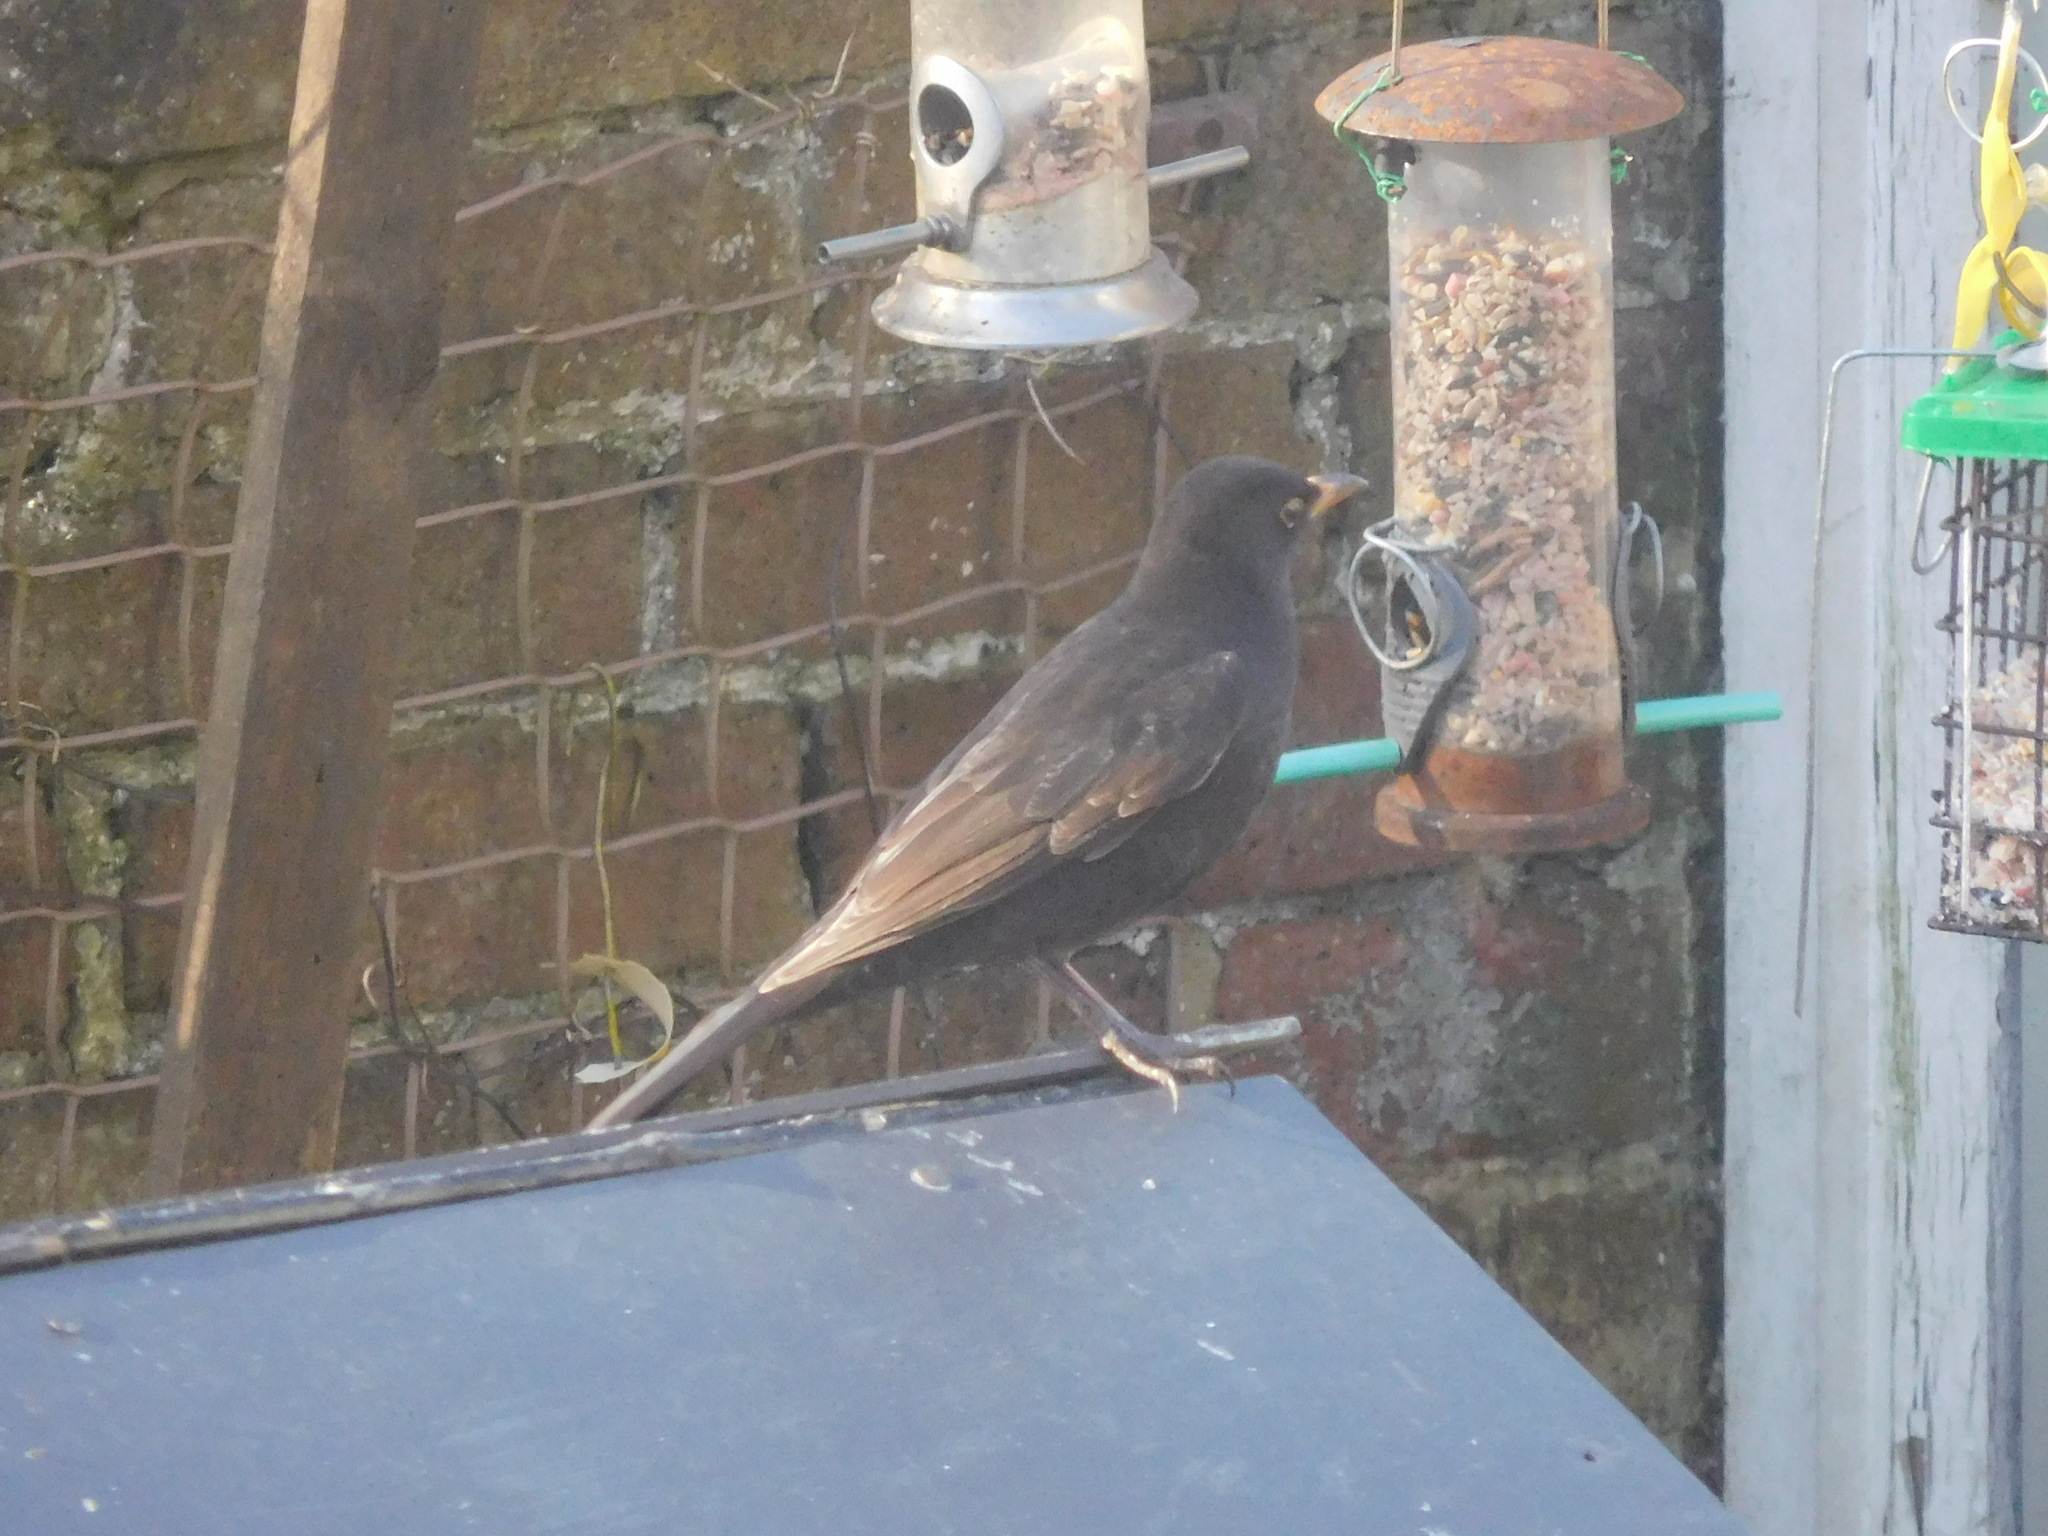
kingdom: Animalia
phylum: Chordata
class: Aves
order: Passeriformes
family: Turdidae
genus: Turdus
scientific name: Turdus merula
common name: Common blackbird
